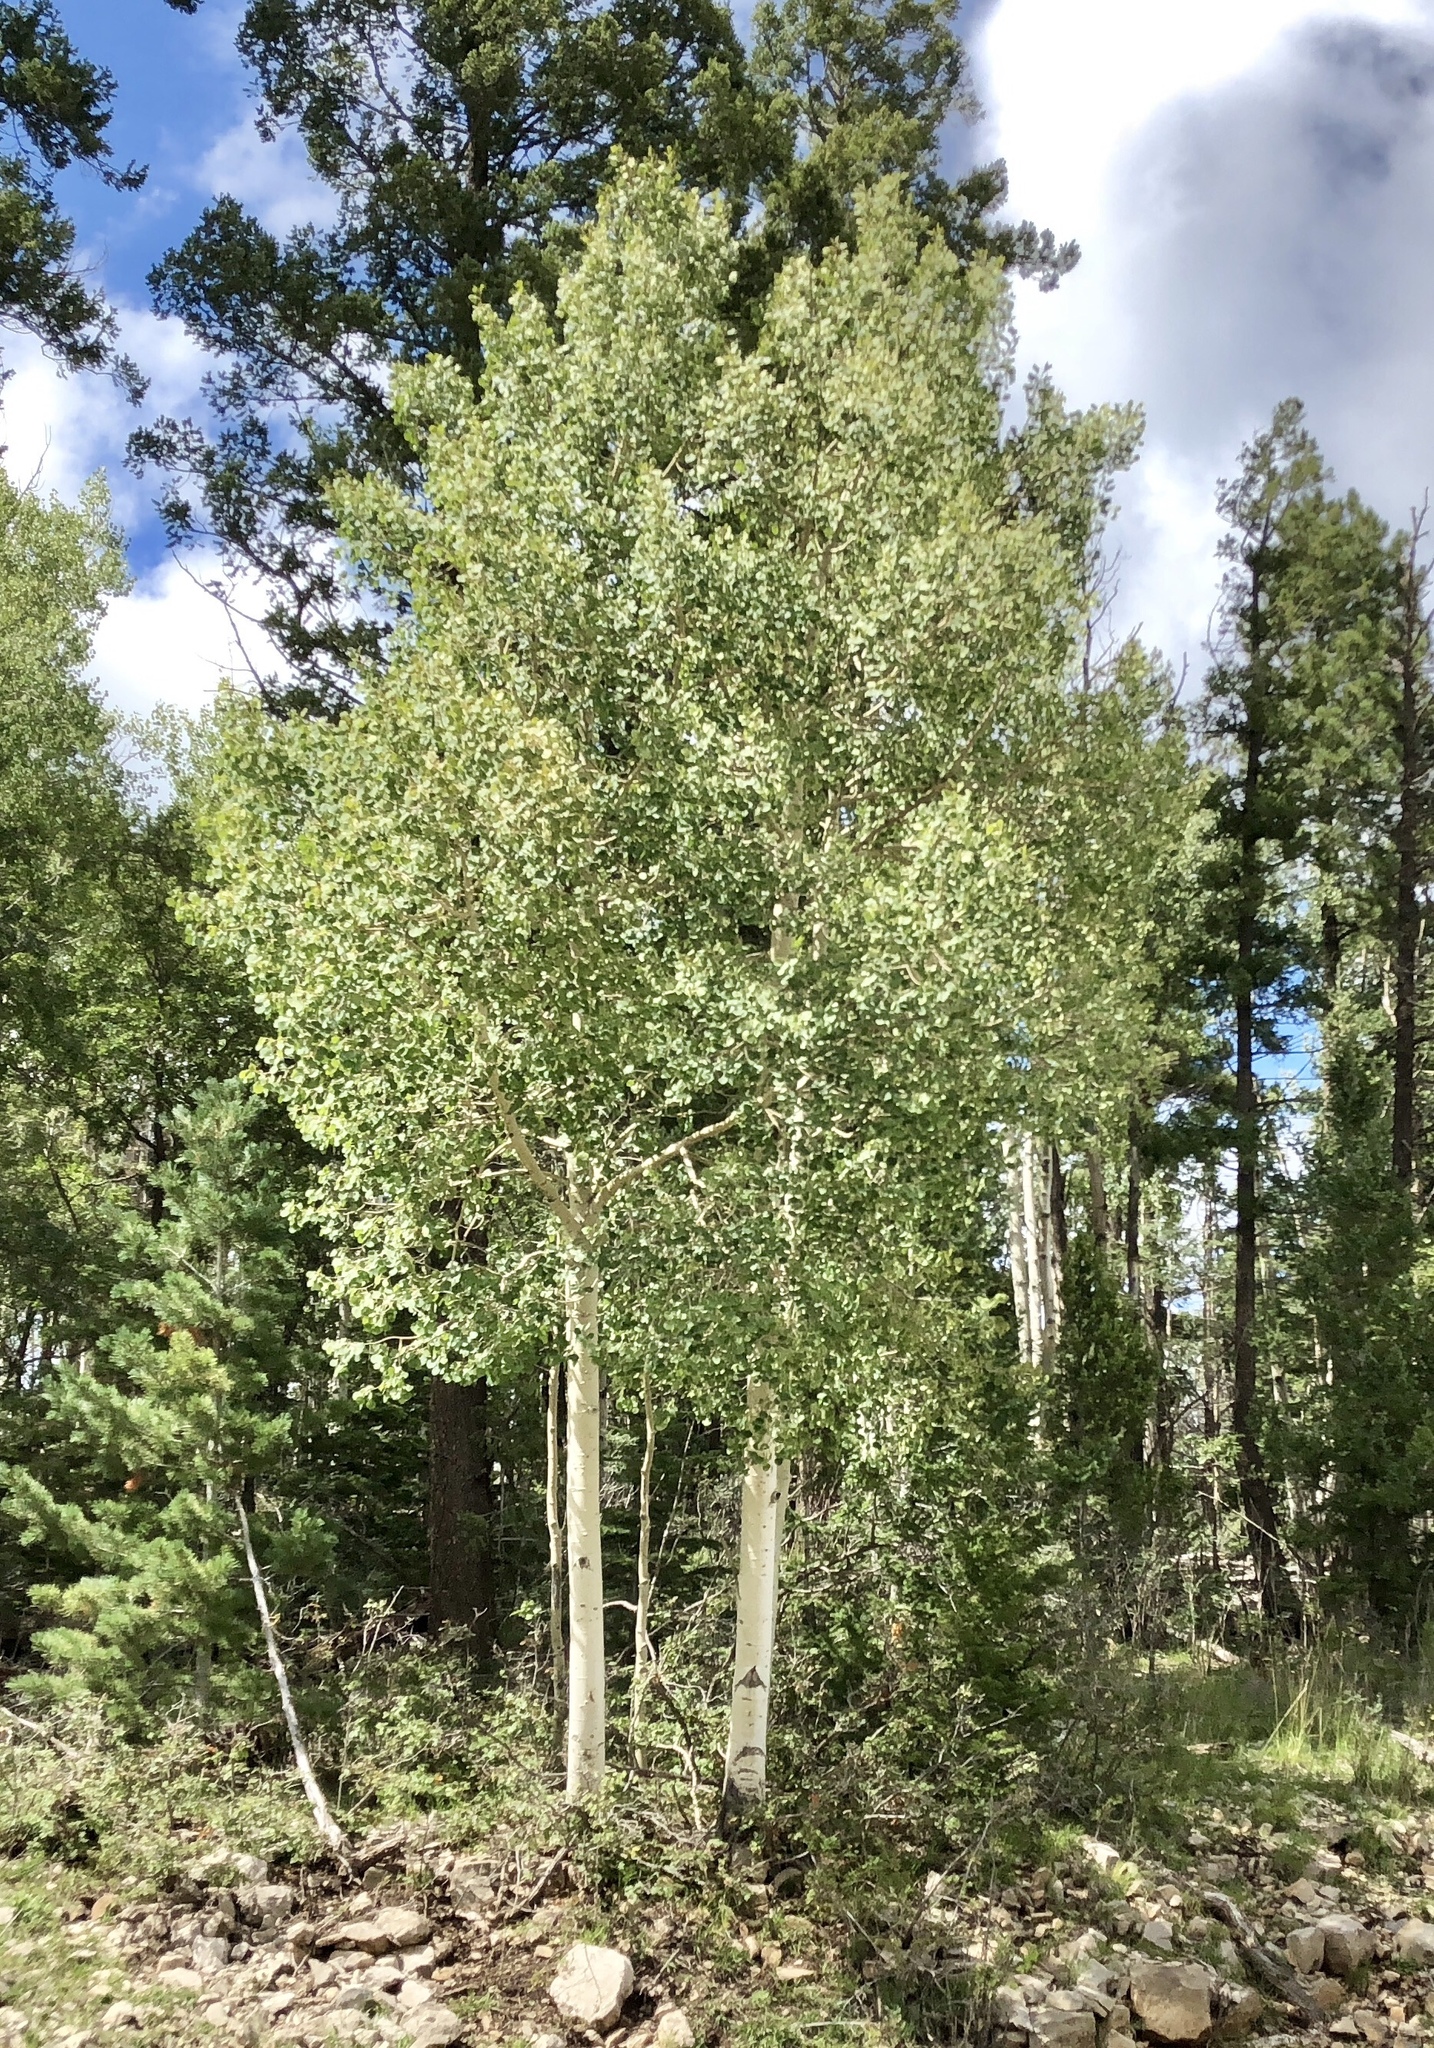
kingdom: Plantae
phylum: Tracheophyta
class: Magnoliopsida
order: Malpighiales
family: Salicaceae
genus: Populus
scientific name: Populus tremuloides
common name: Quaking aspen
